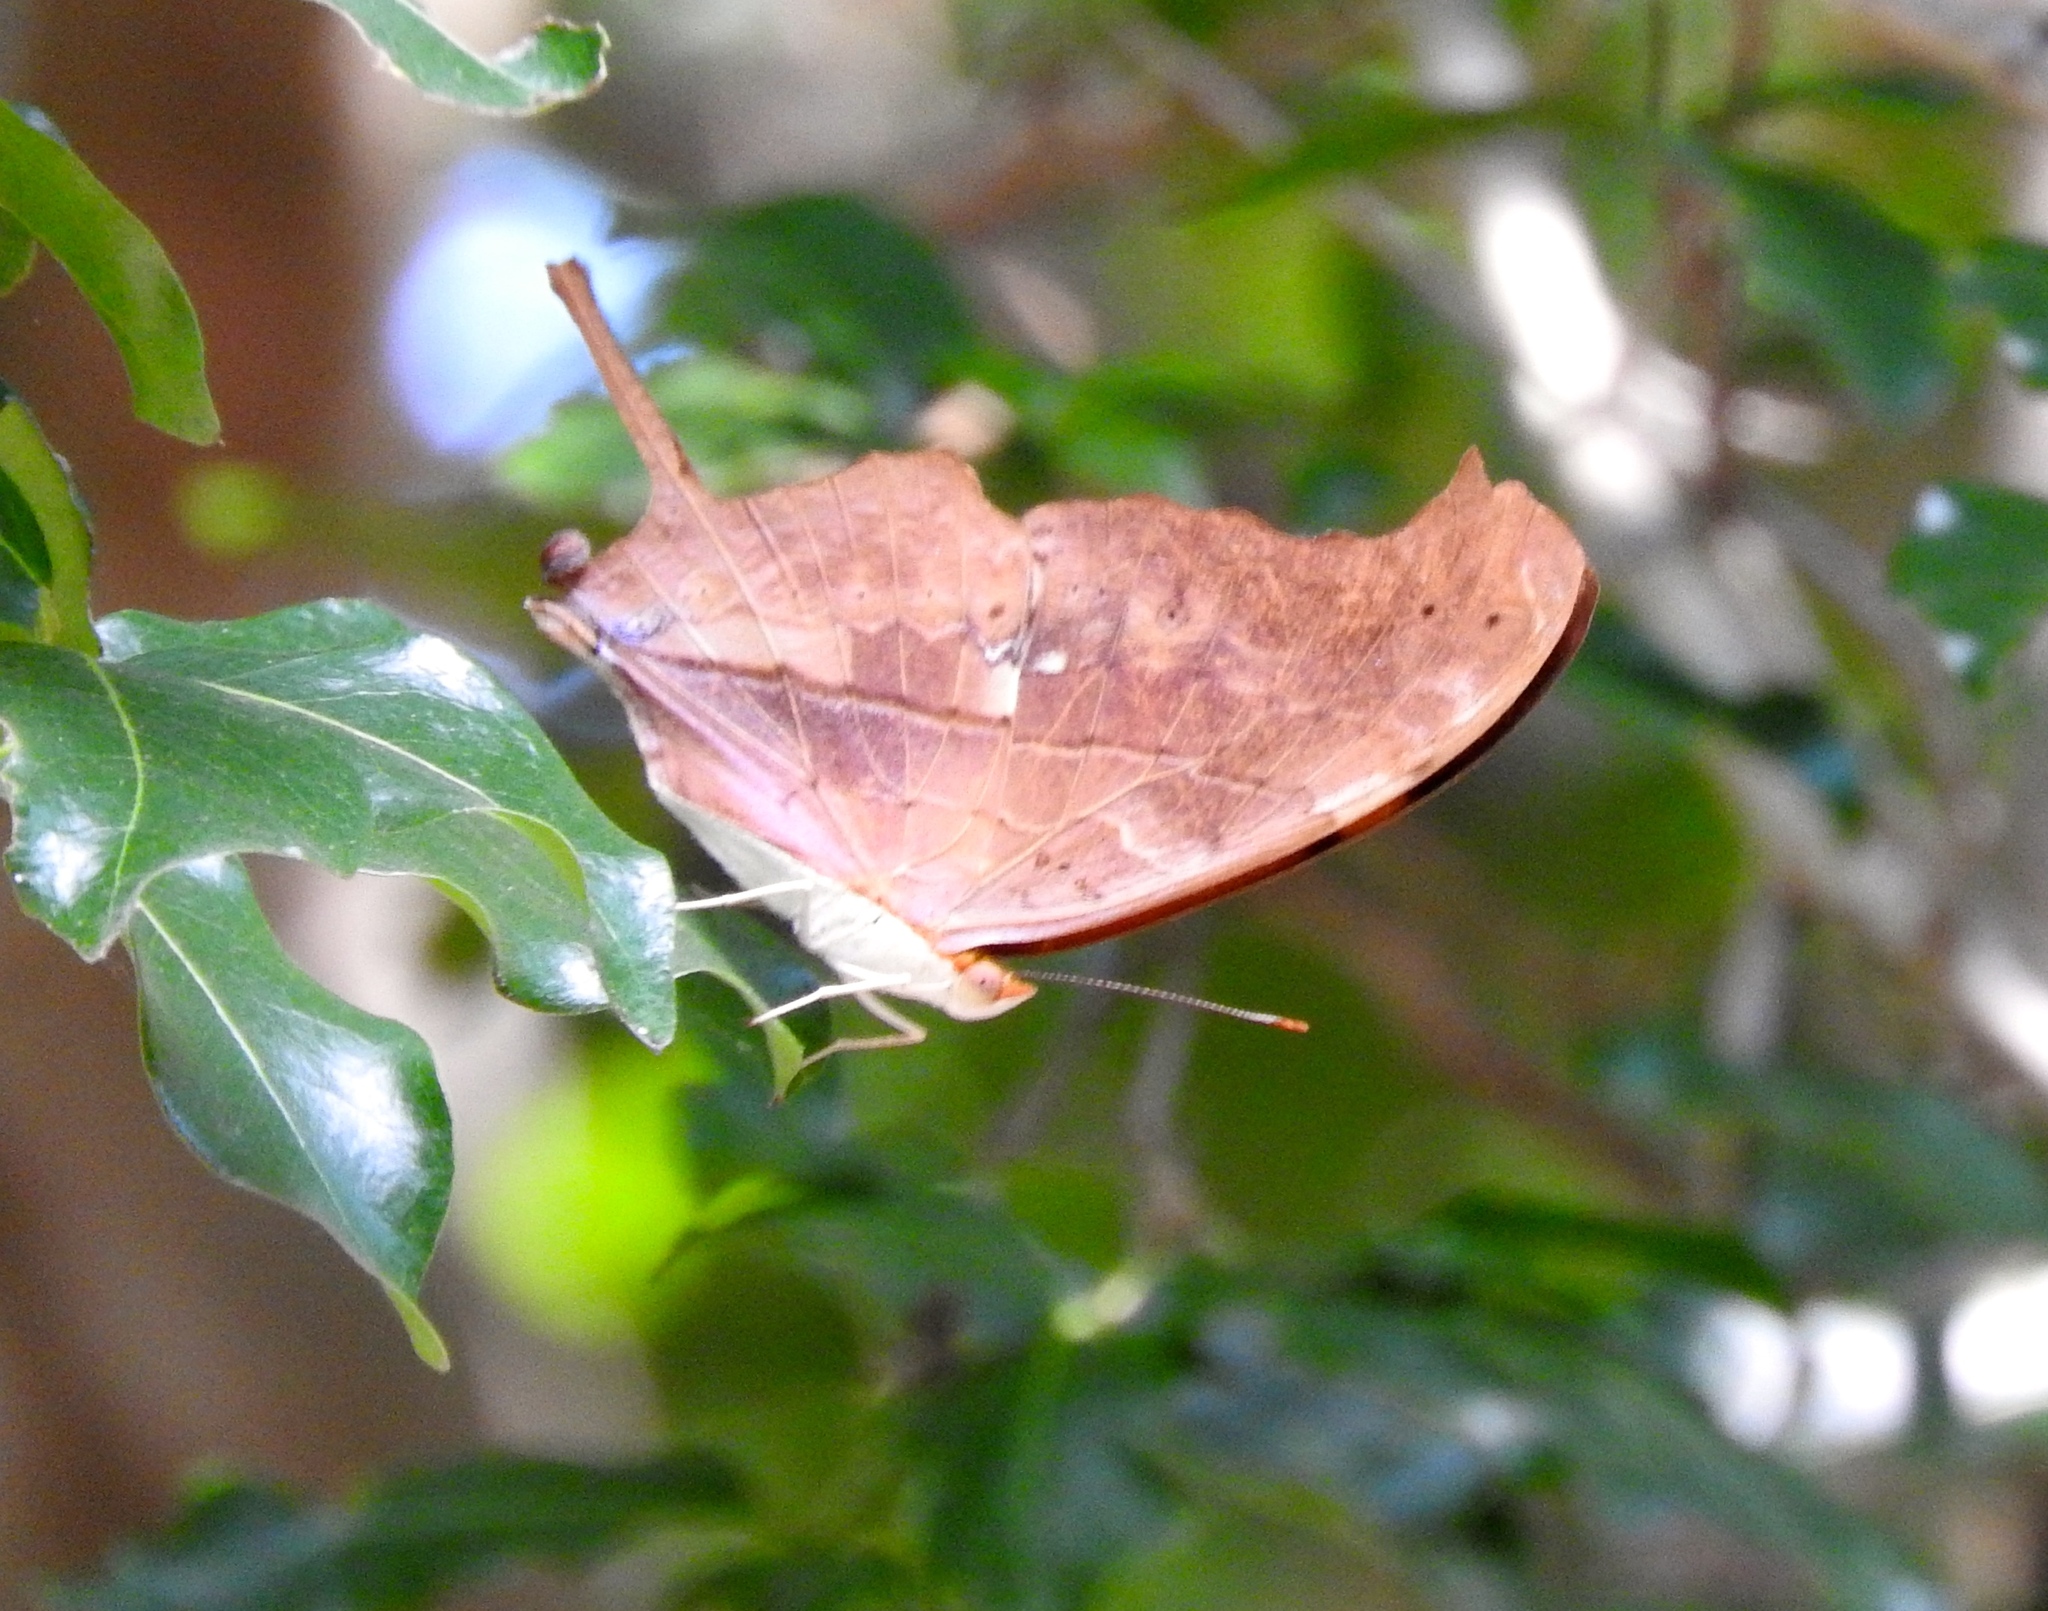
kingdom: Animalia
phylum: Arthropoda
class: Insecta
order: Lepidoptera
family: Nymphalidae
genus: Marpesia
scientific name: Marpesia petreus
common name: Red dagger wing
